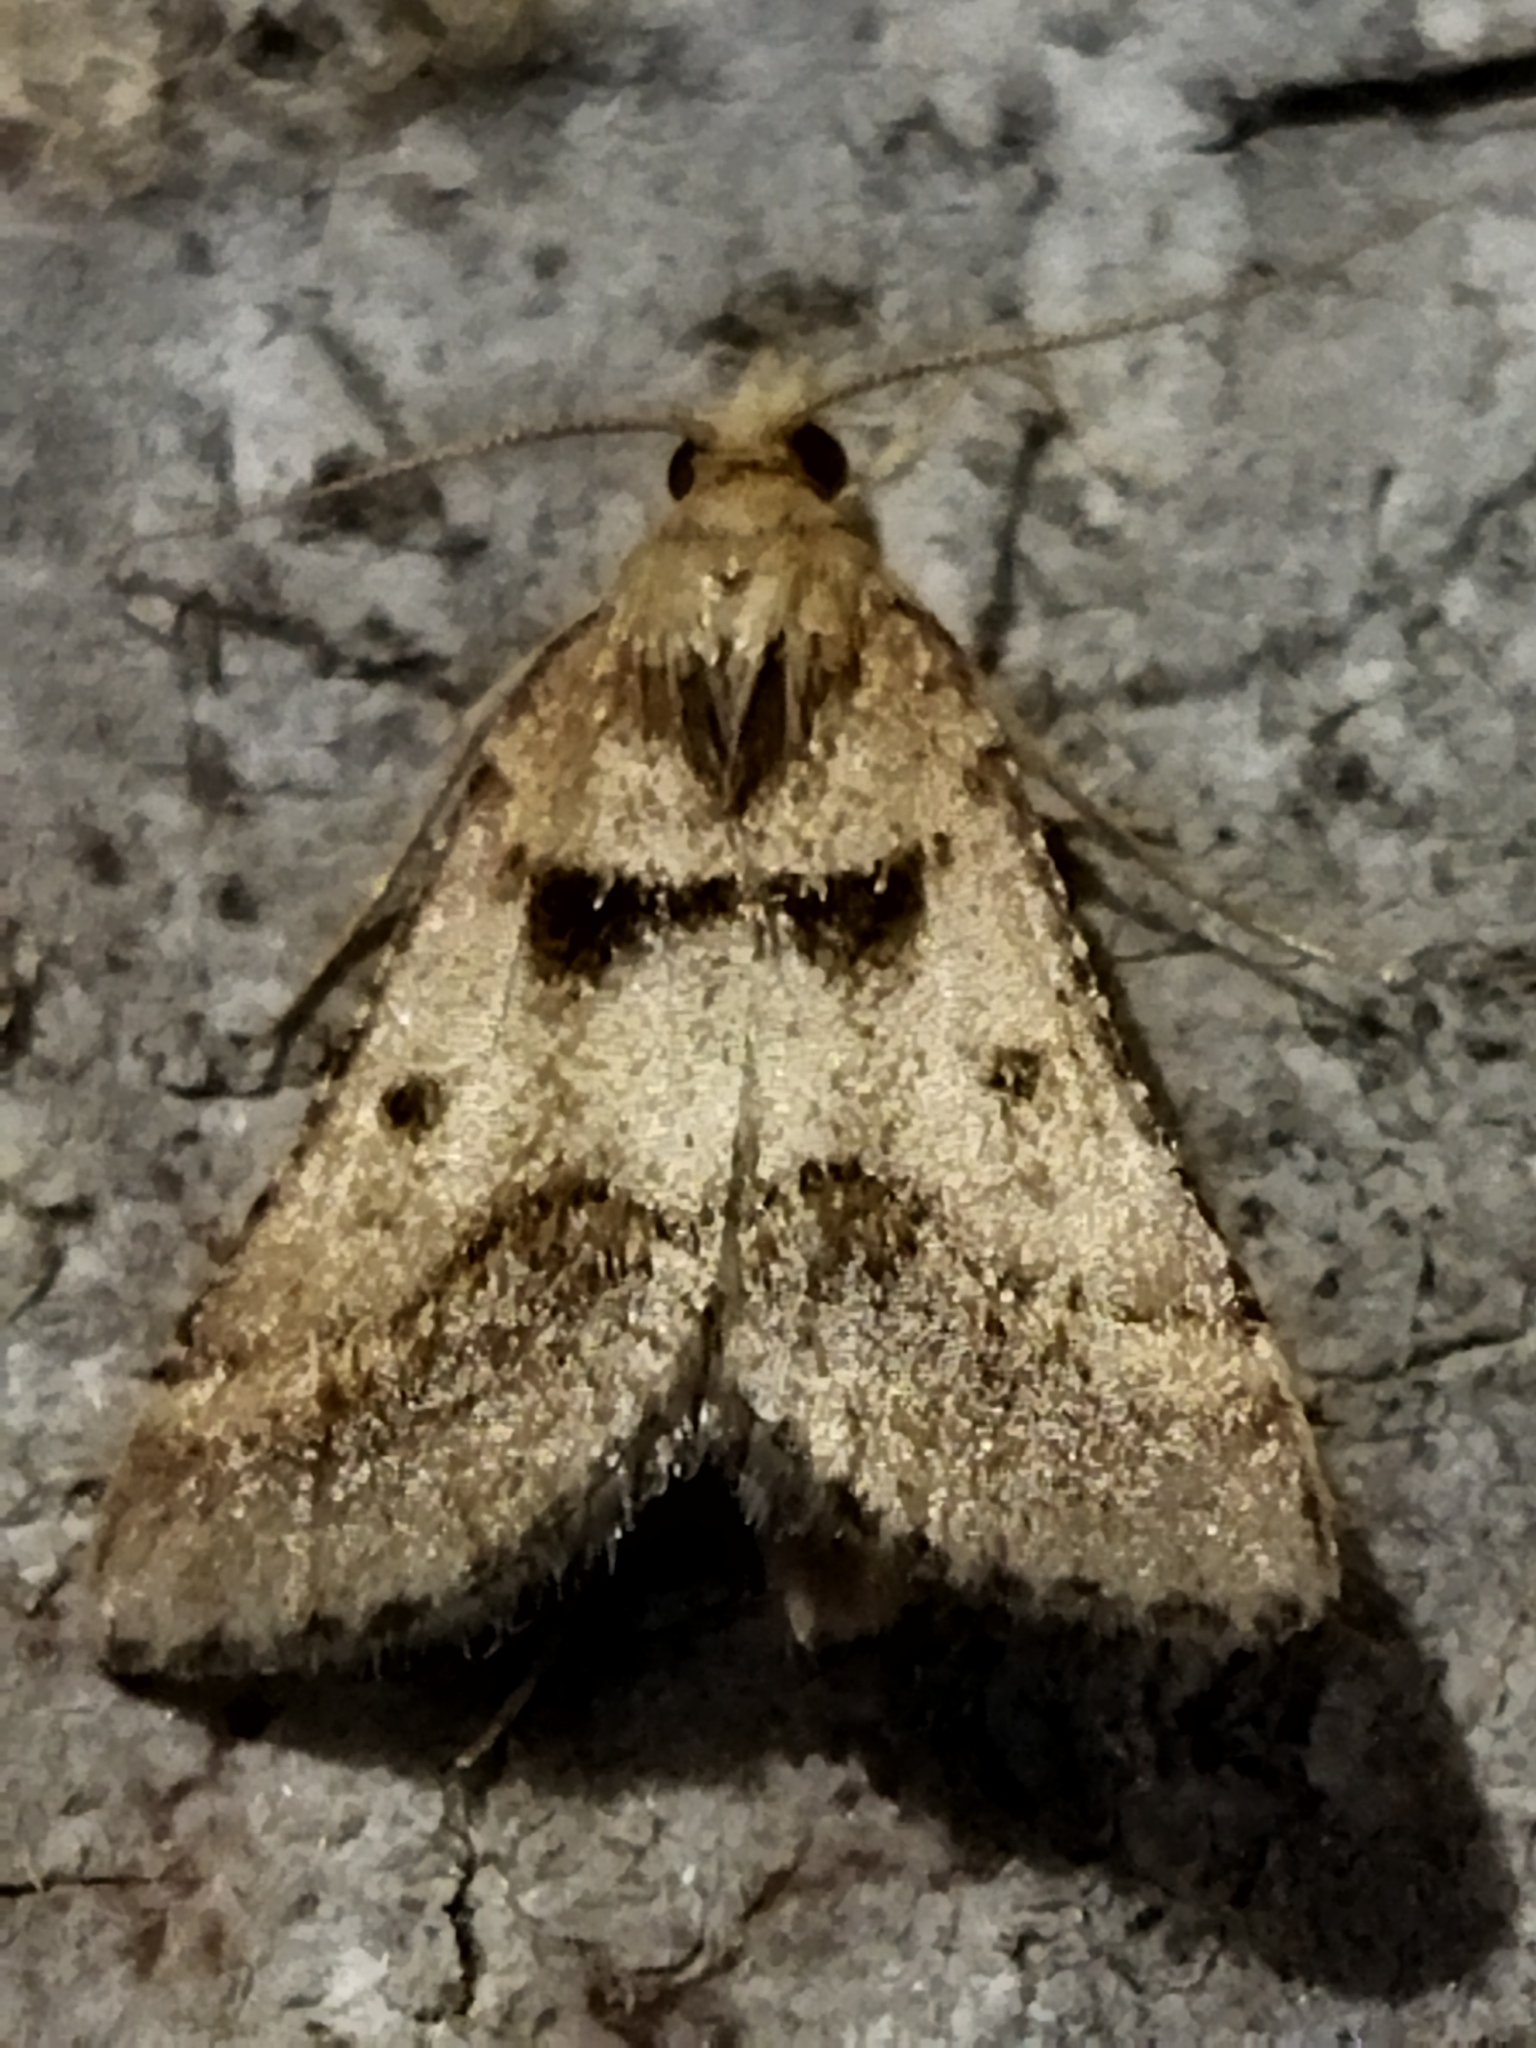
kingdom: Animalia
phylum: Arthropoda
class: Insecta
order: Lepidoptera
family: Pyralidae
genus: Stemmatophora
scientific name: Stemmatophora brunnealis
